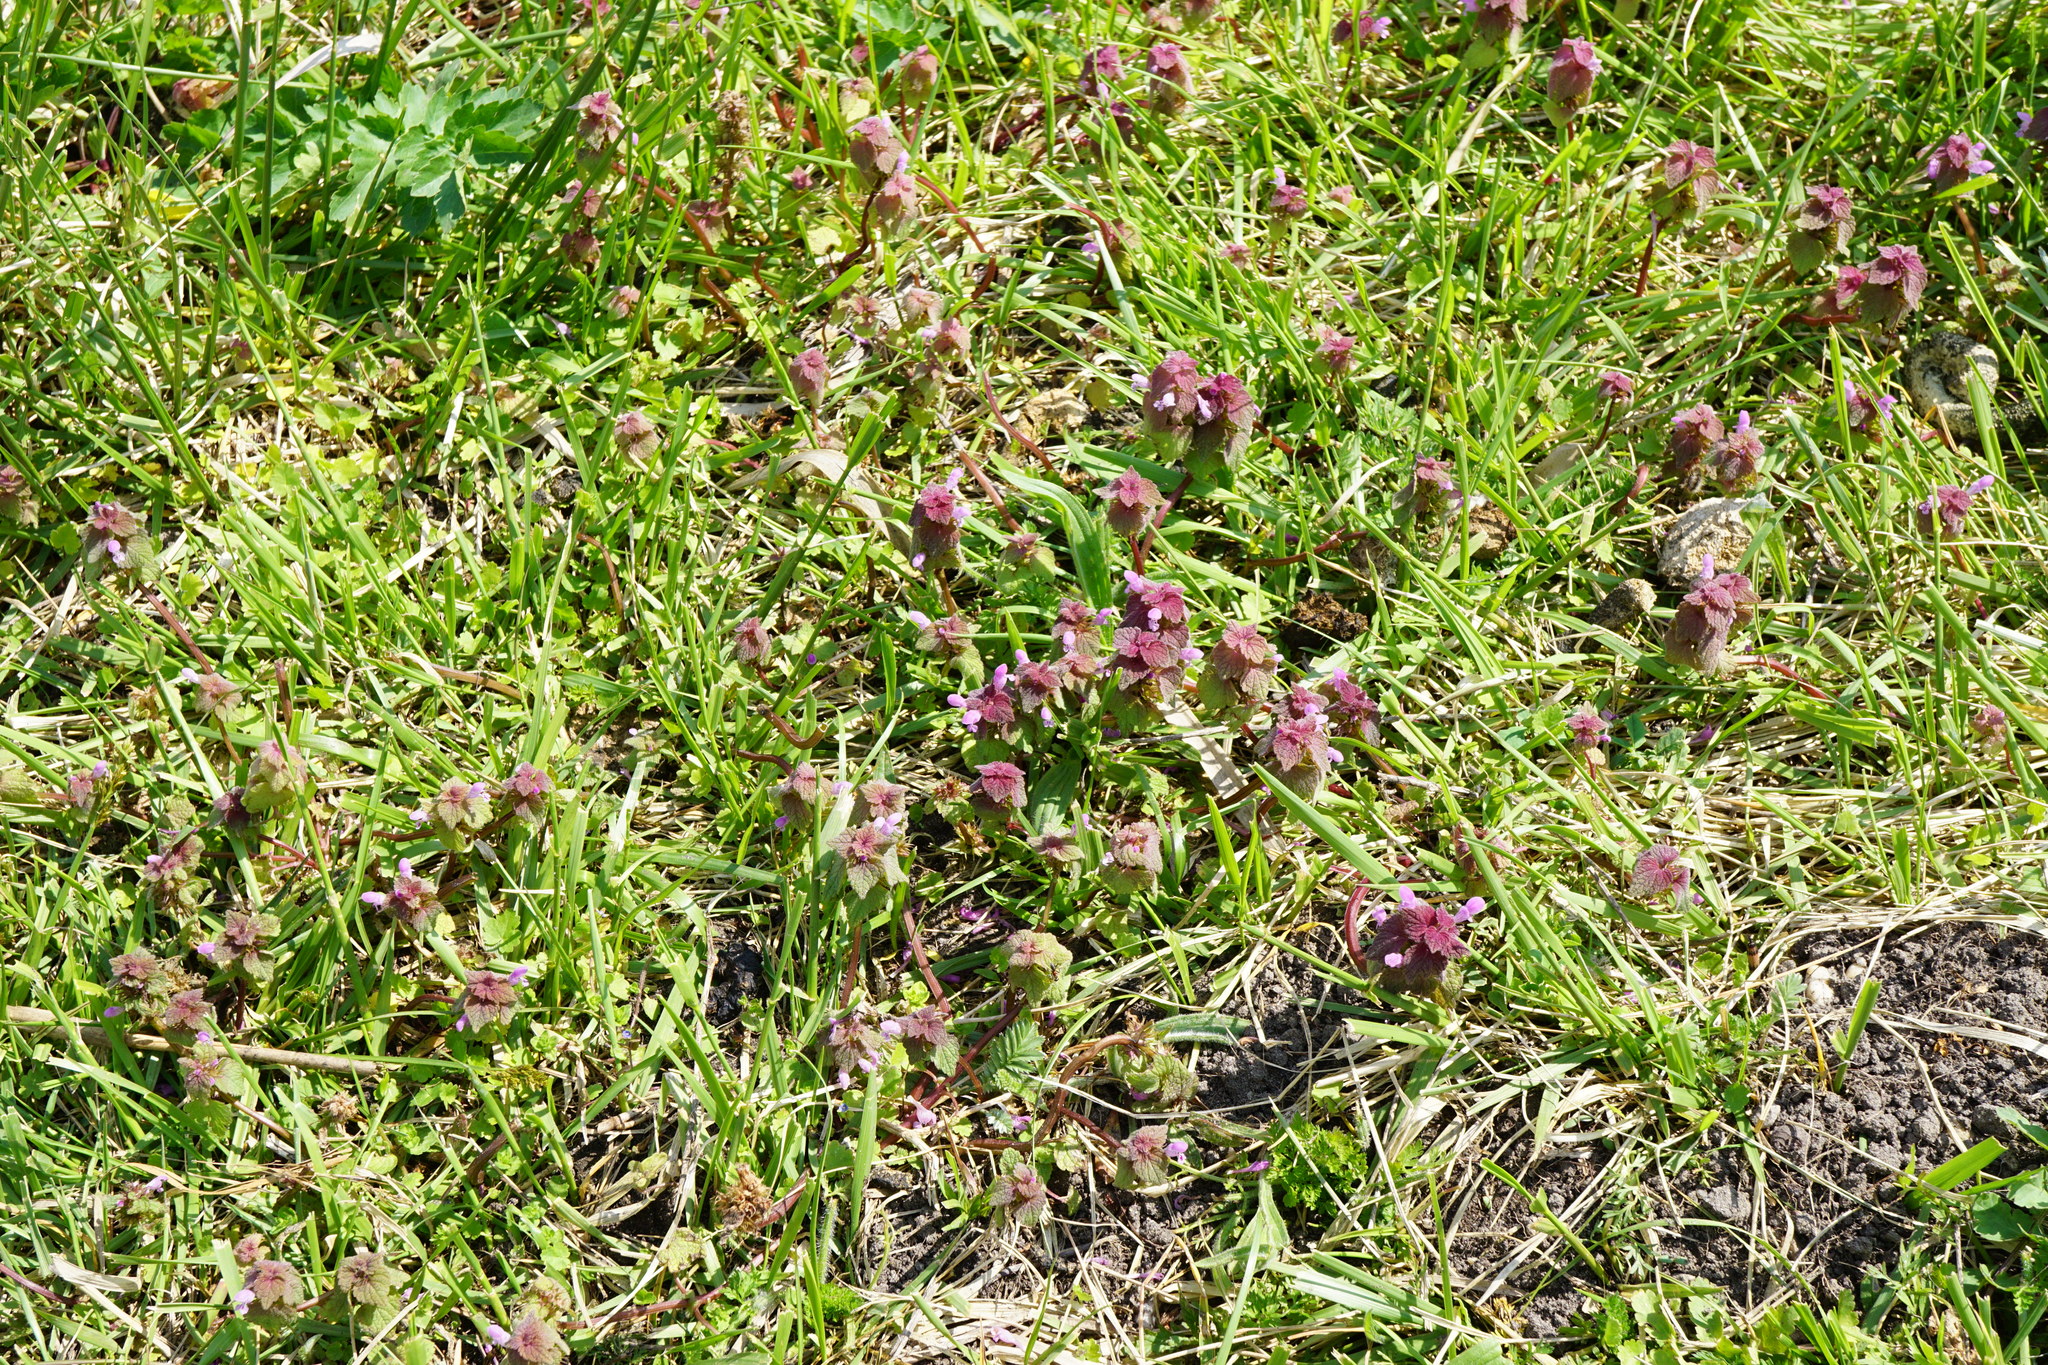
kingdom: Plantae
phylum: Tracheophyta
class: Magnoliopsida
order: Lamiales
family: Lamiaceae
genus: Lamium
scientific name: Lamium purpureum
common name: Red dead-nettle
